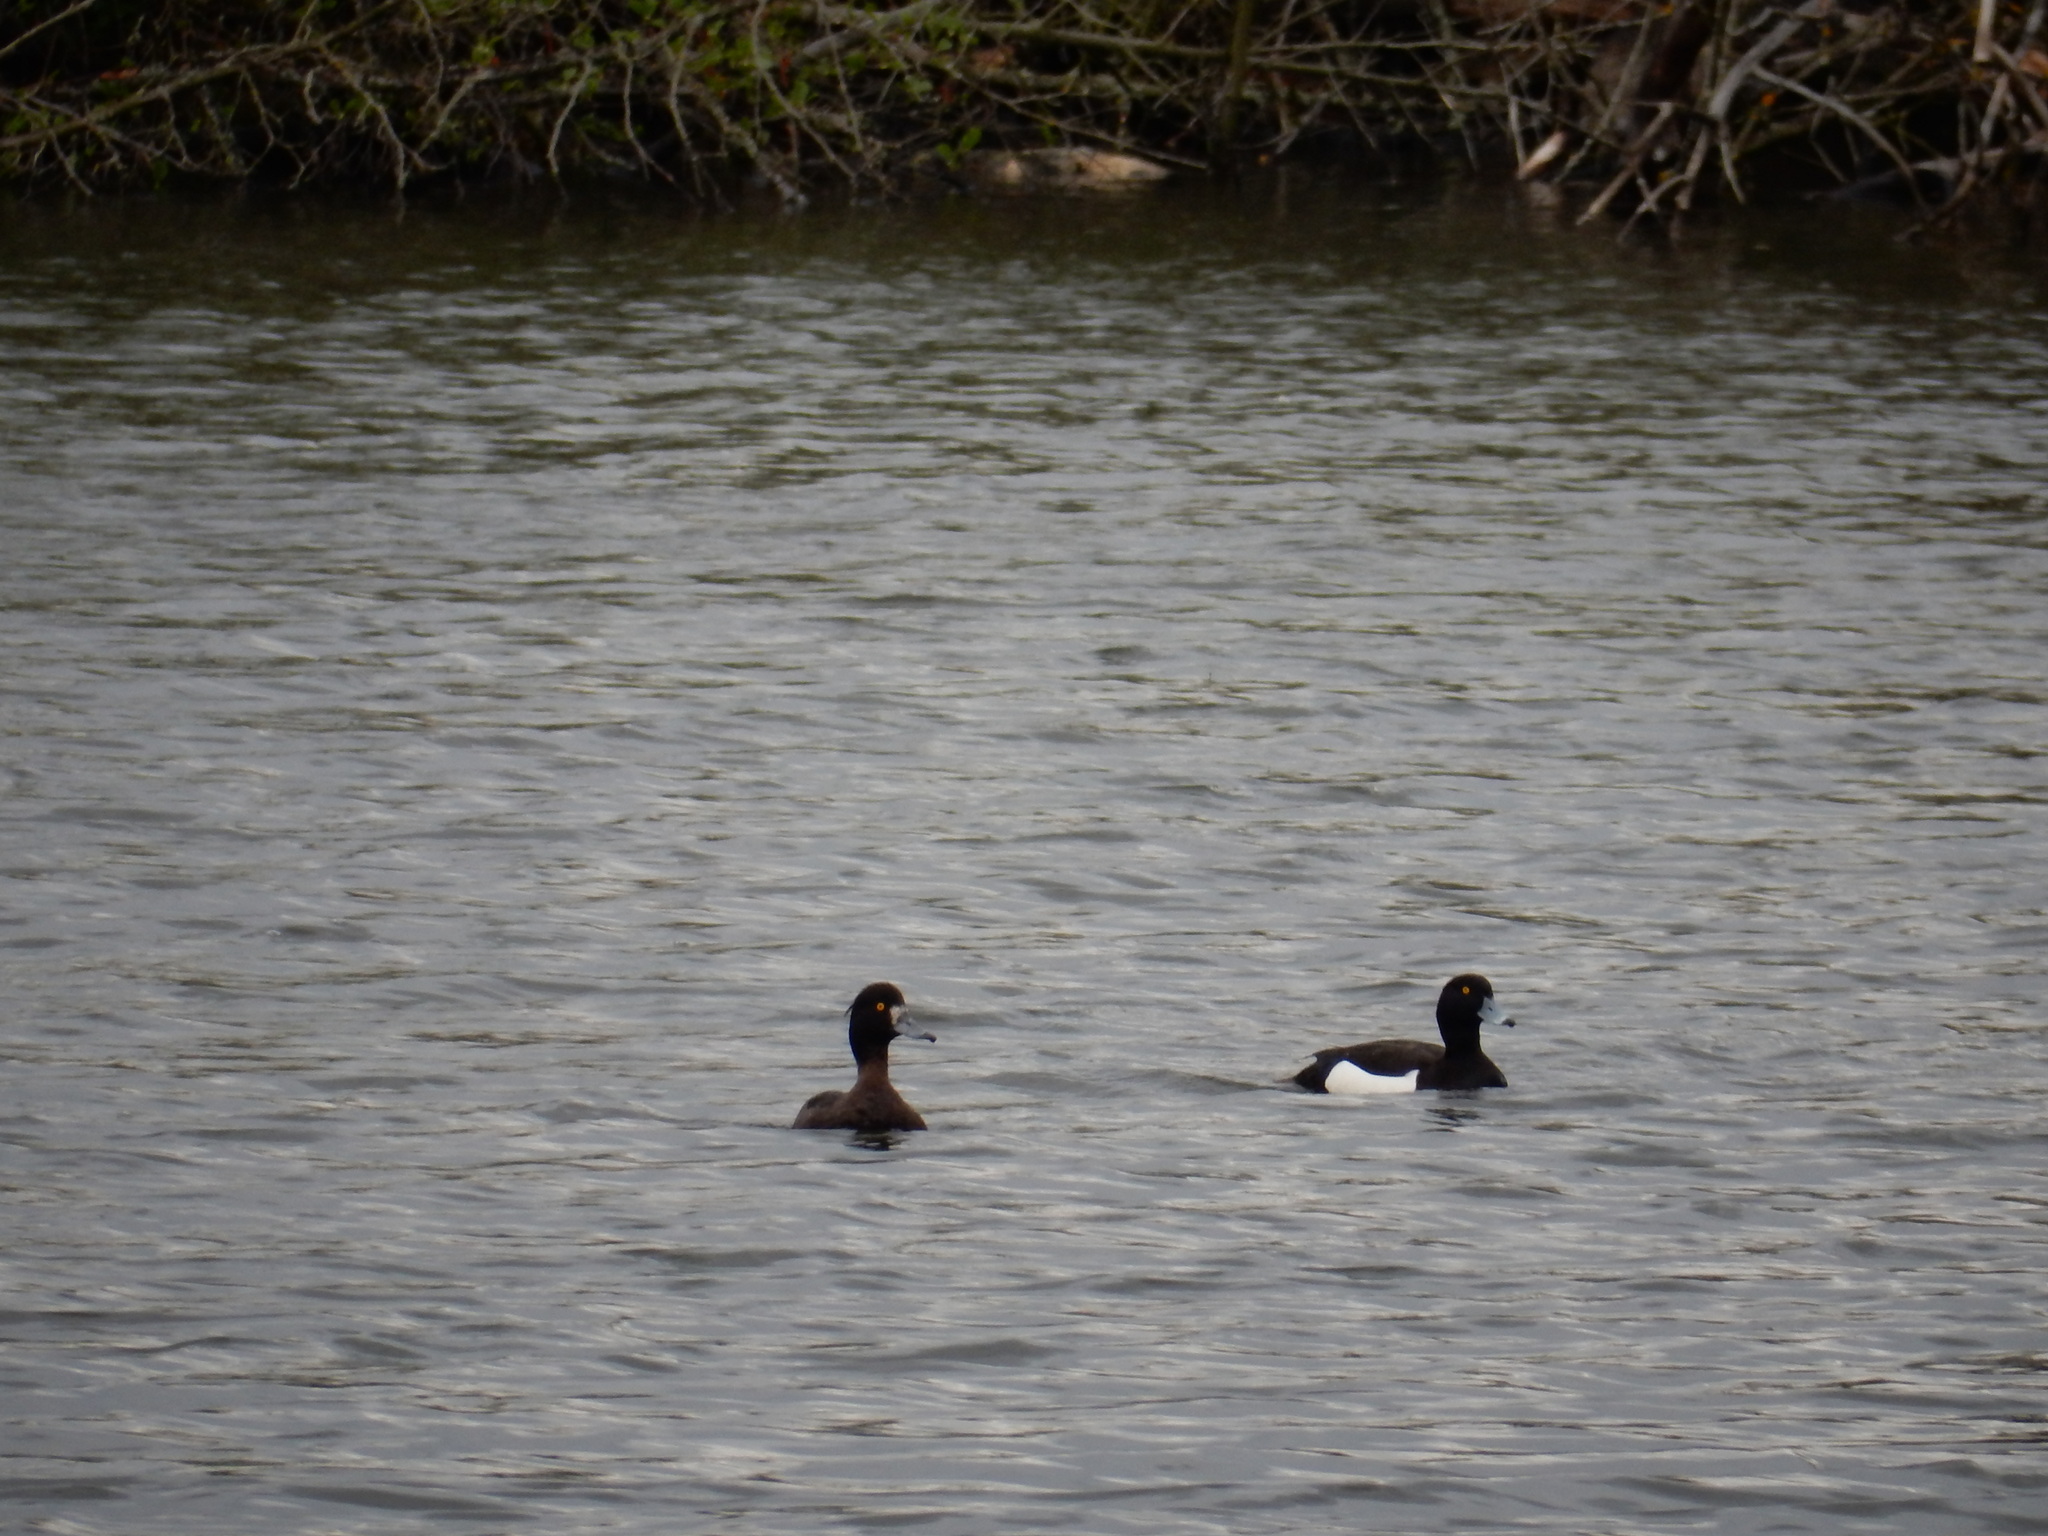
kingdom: Animalia
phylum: Chordata
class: Aves
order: Anseriformes
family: Anatidae
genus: Aythya
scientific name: Aythya fuligula
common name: Tufted duck
